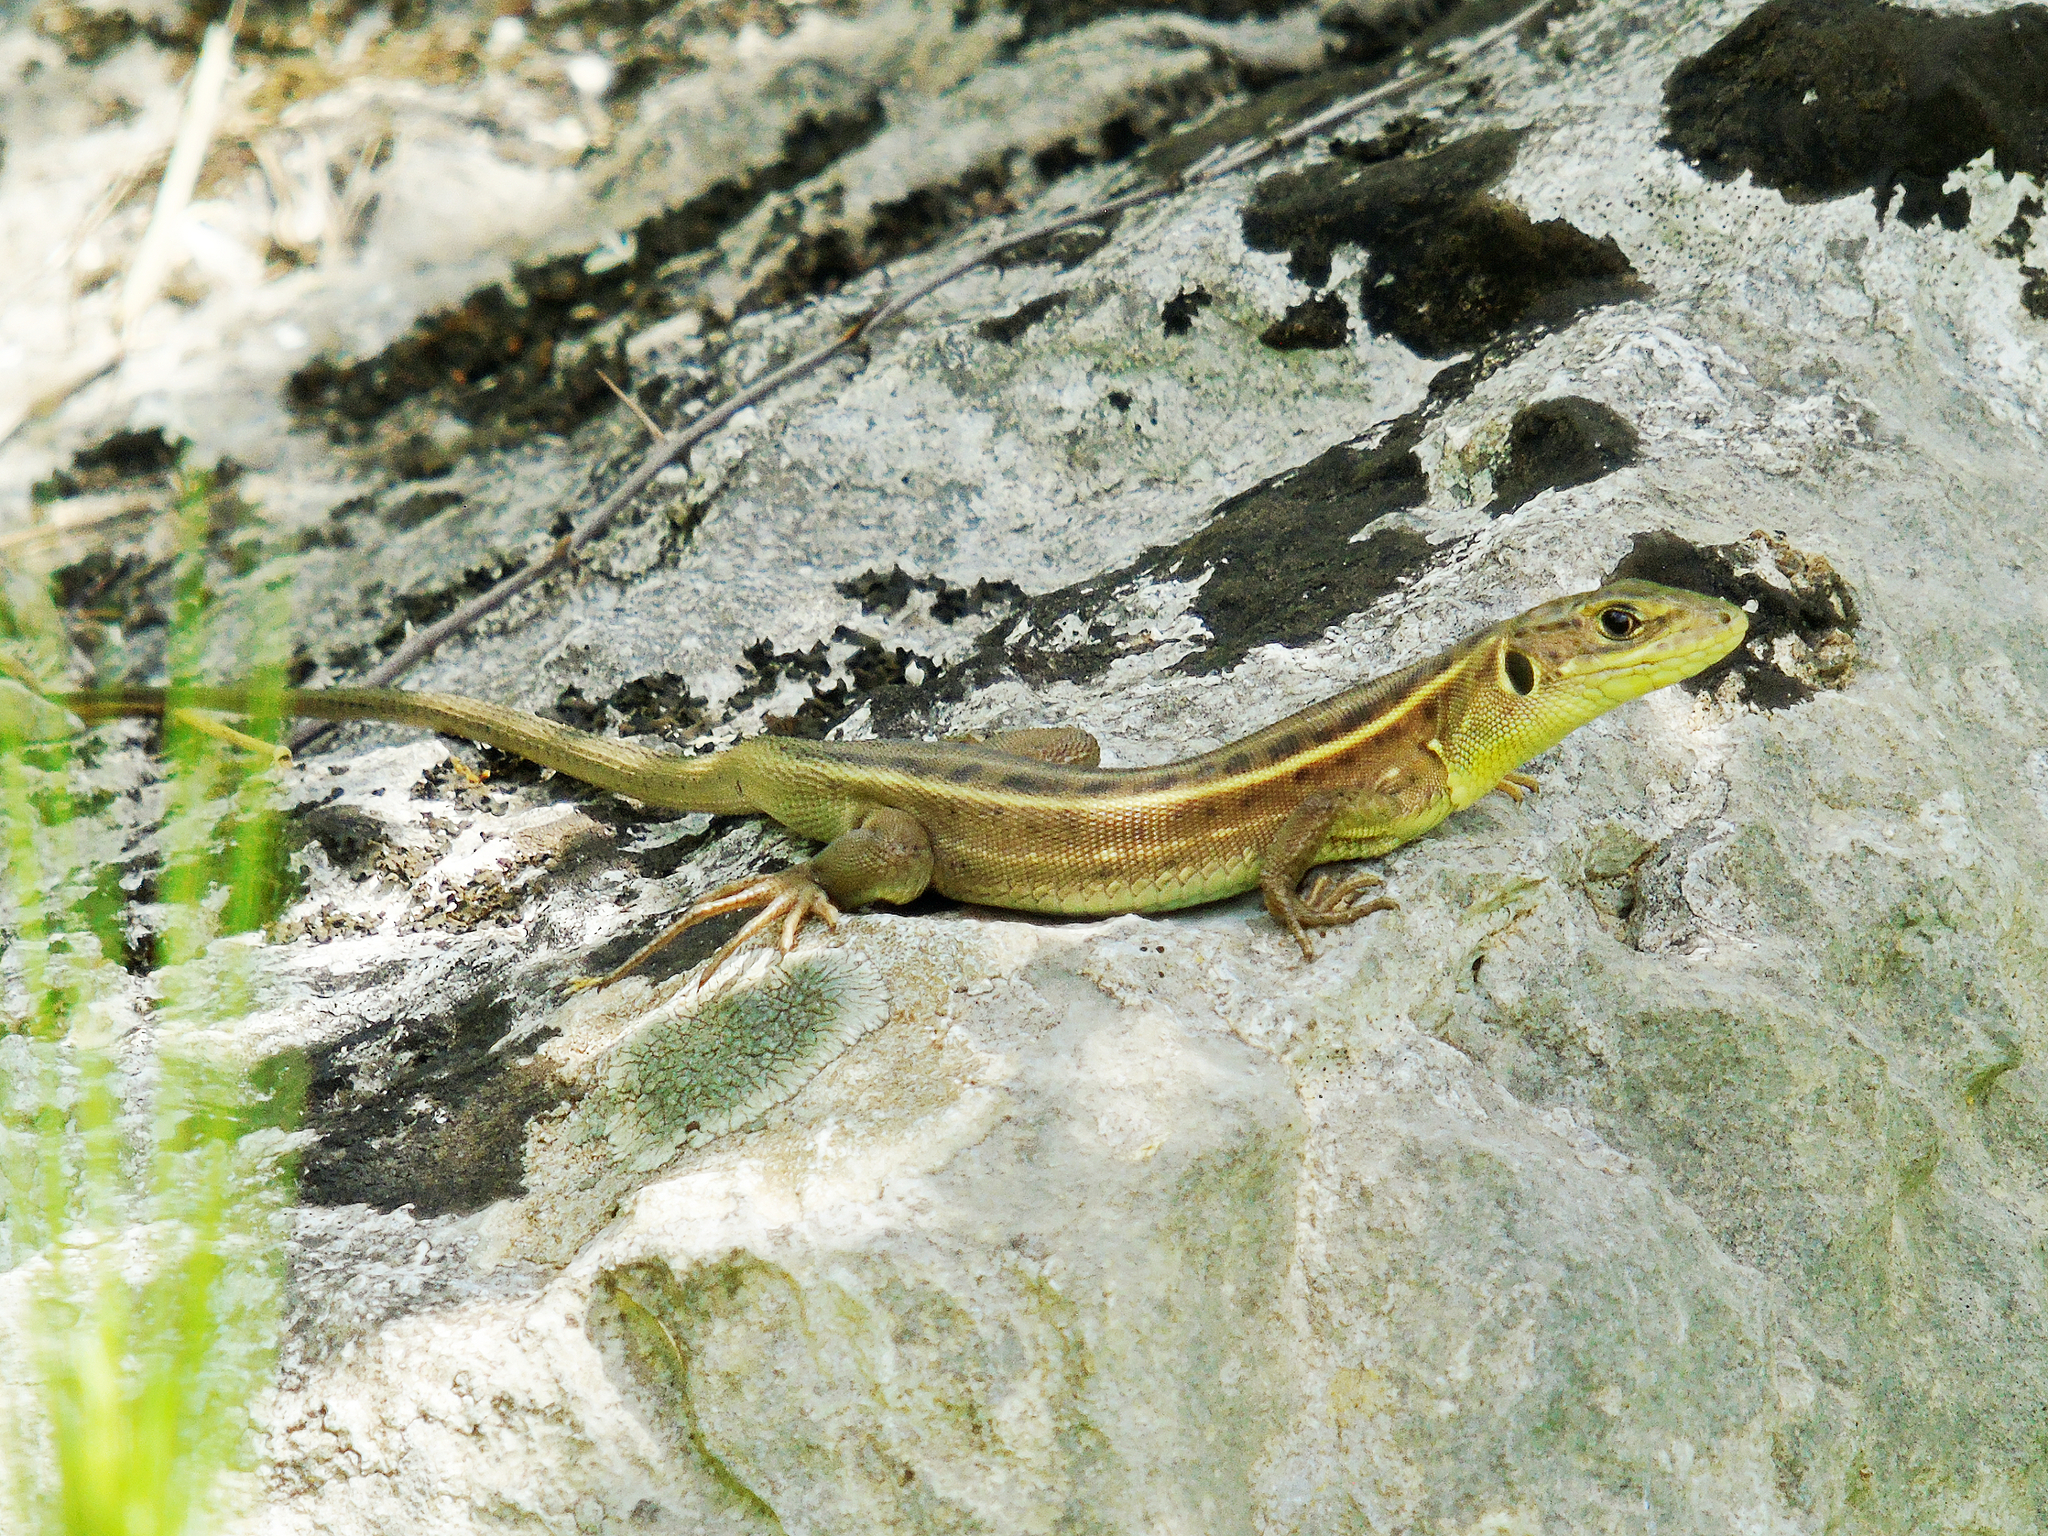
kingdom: Animalia
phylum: Chordata
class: Squamata
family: Lacertidae
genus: Lacerta
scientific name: Lacerta trilineata
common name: Balkan green lizard
